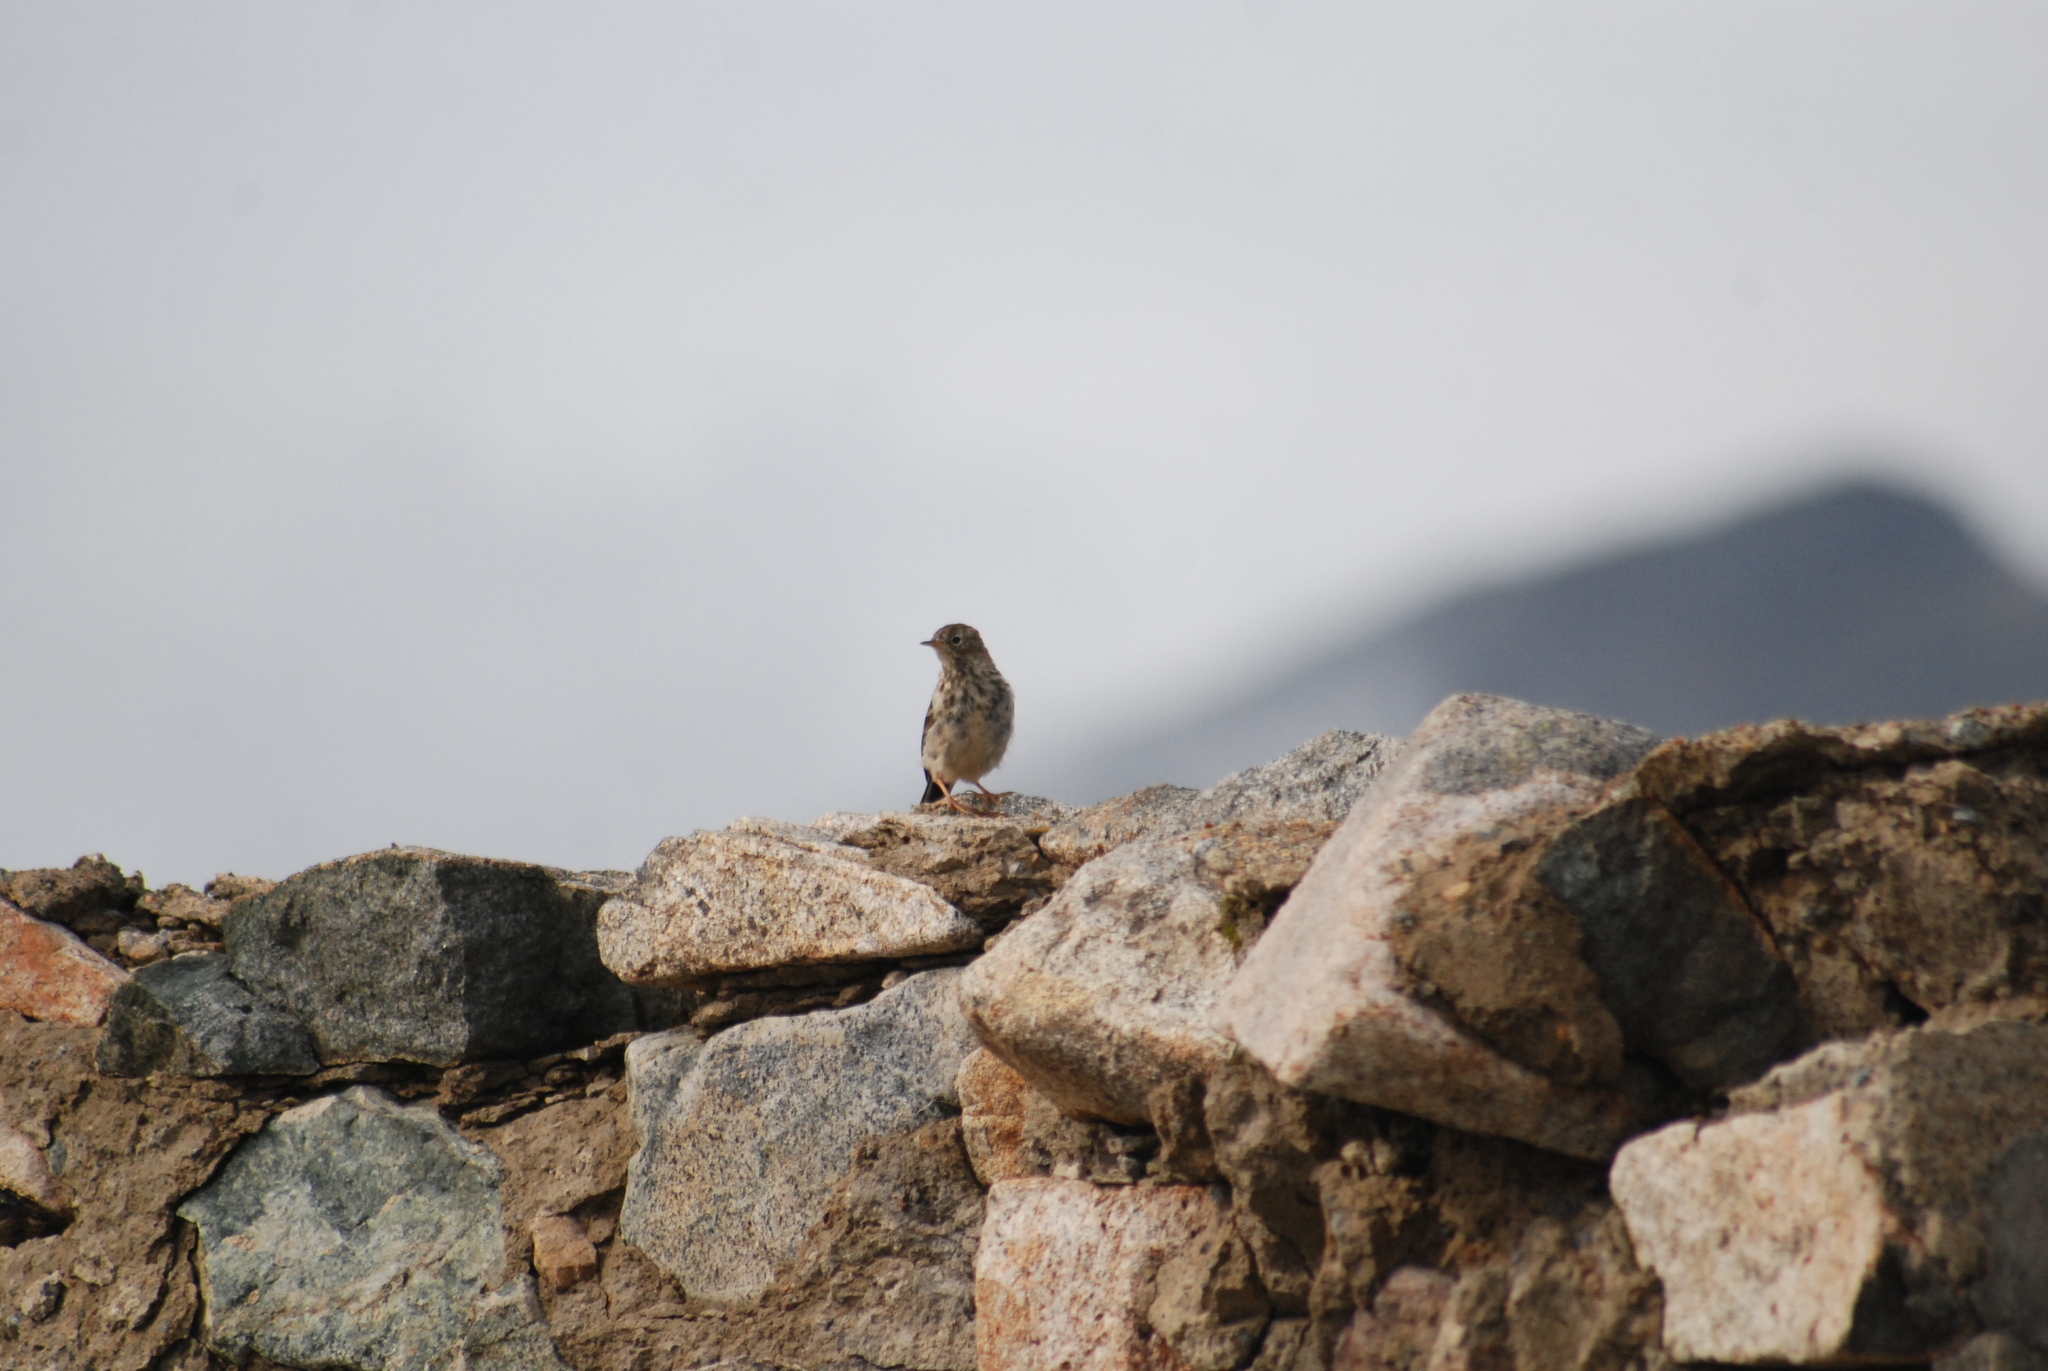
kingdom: Animalia
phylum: Chordata
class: Aves
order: Passeriformes
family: Motacillidae
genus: Anthus
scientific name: Anthus rubescens
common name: Buff-bellied pipit
